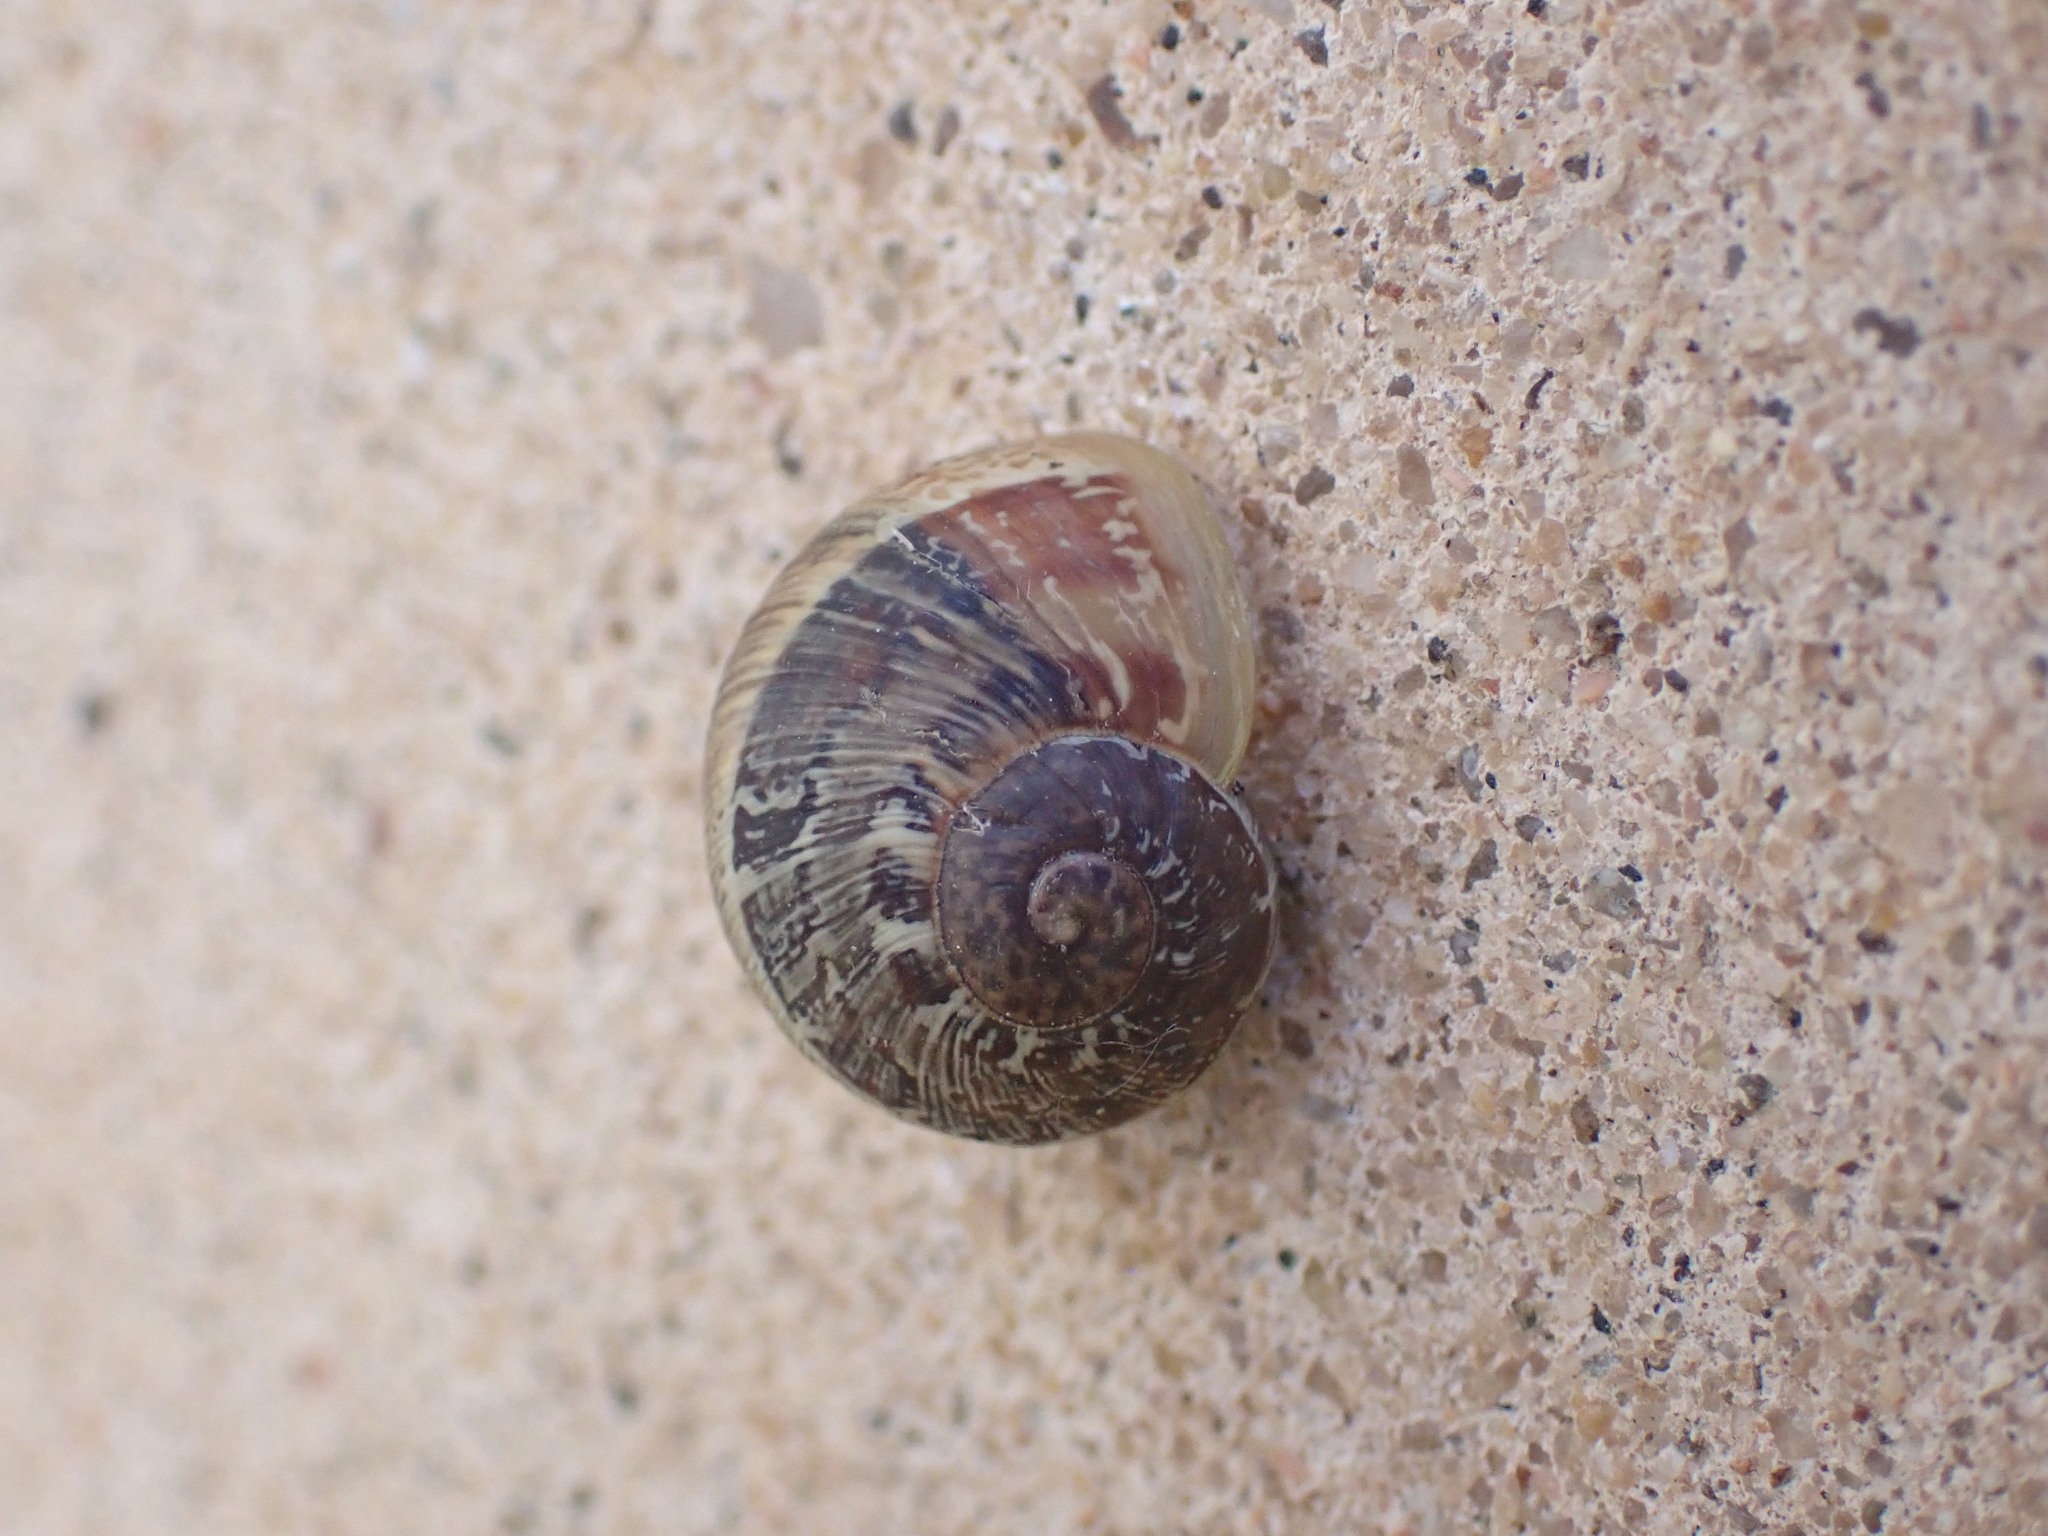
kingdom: Animalia
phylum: Mollusca
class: Gastropoda
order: Stylommatophora
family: Helicidae
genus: Cornu
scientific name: Cornu aspersum
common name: Brown garden snail
